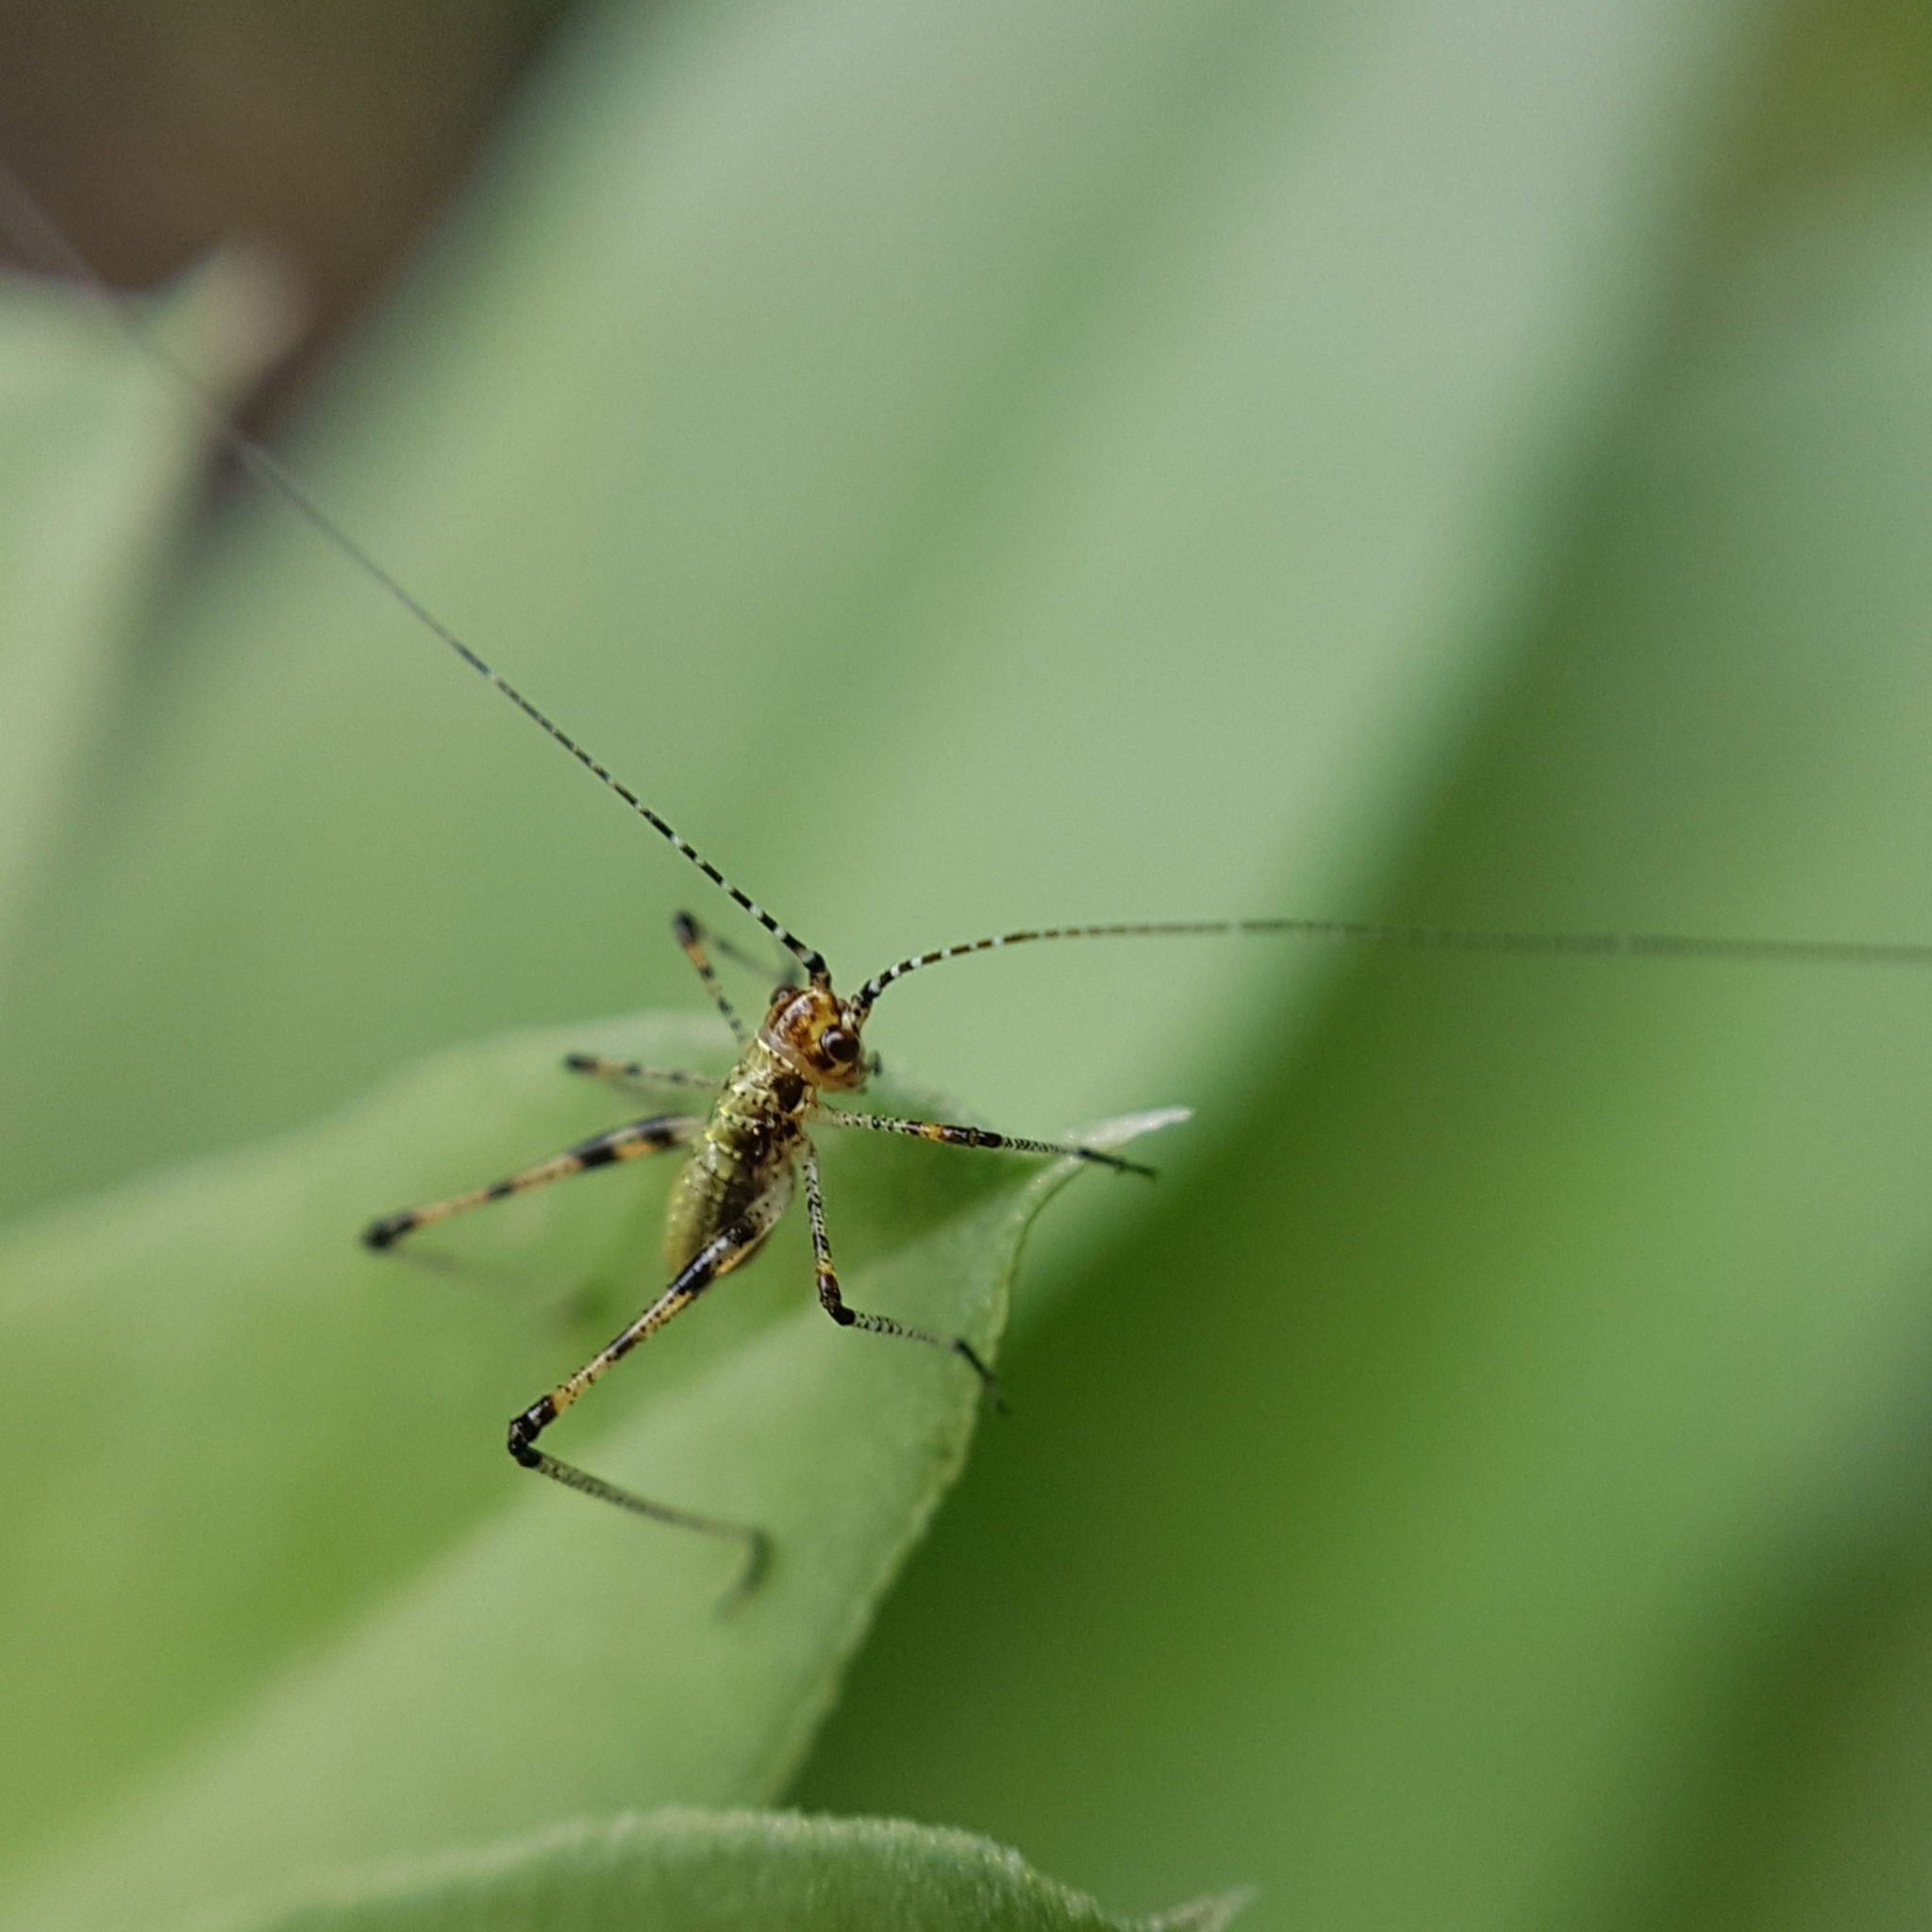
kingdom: Animalia
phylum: Arthropoda
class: Insecta
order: Orthoptera
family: Tettigoniidae
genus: Phaneroptera
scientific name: Phaneroptera nana
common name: Southern sickle bush-cricket
